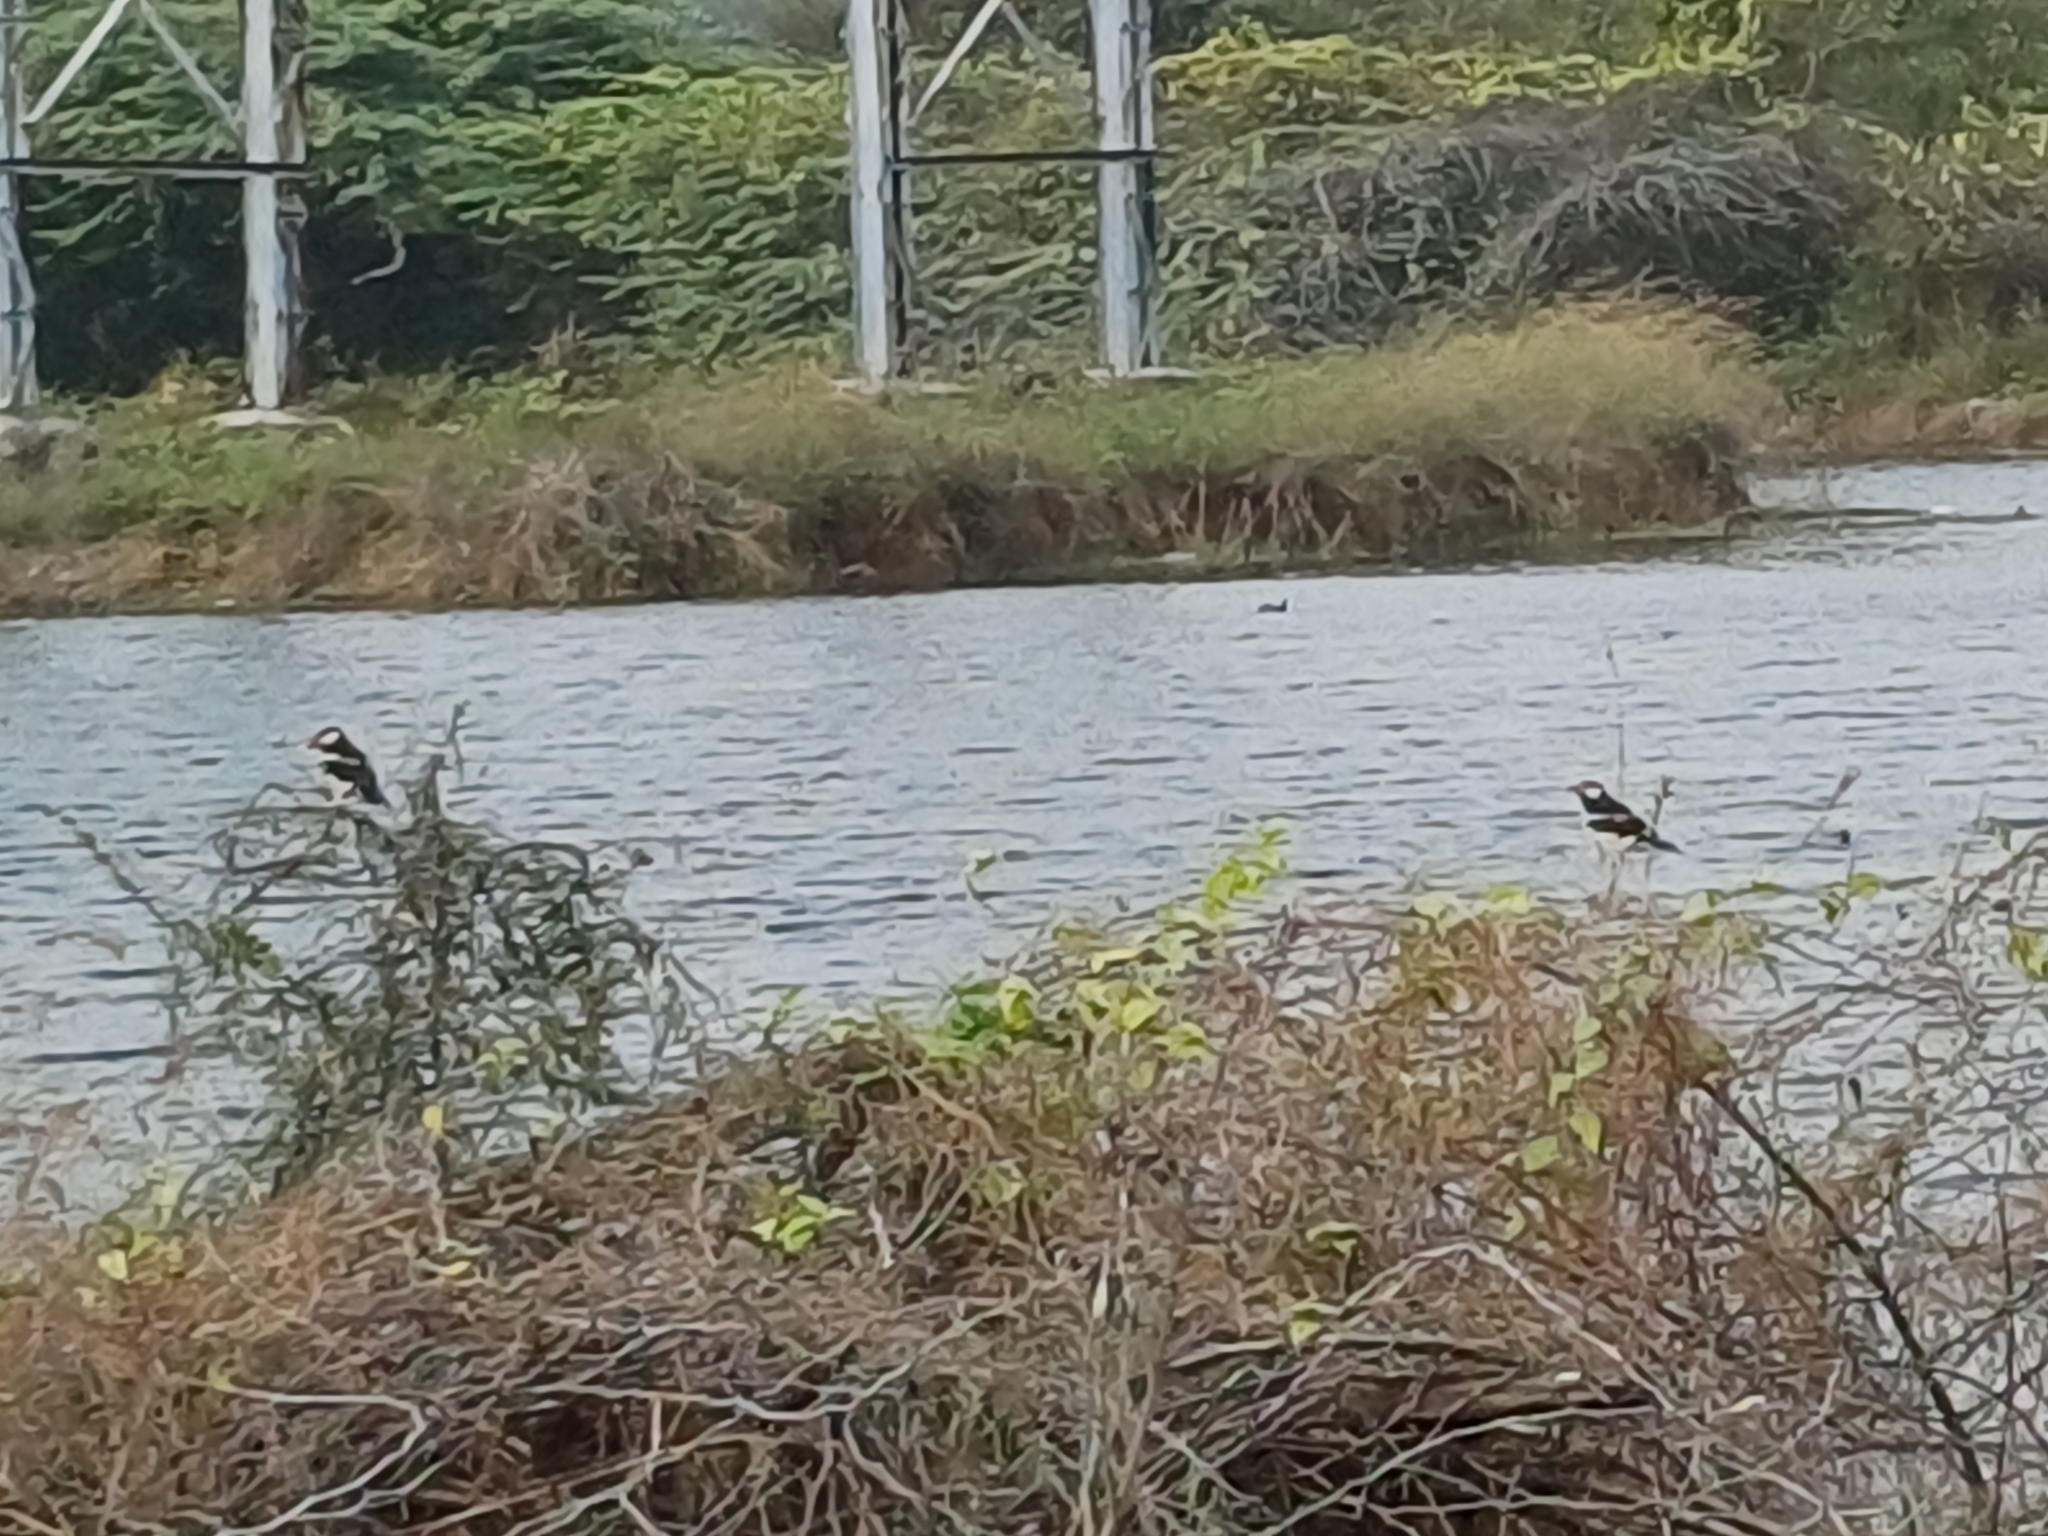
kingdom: Animalia
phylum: Chordata
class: Aves
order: Passeriformes
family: Sturnidae
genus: Gracupica
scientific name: Gracupica contra
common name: Pied myna
